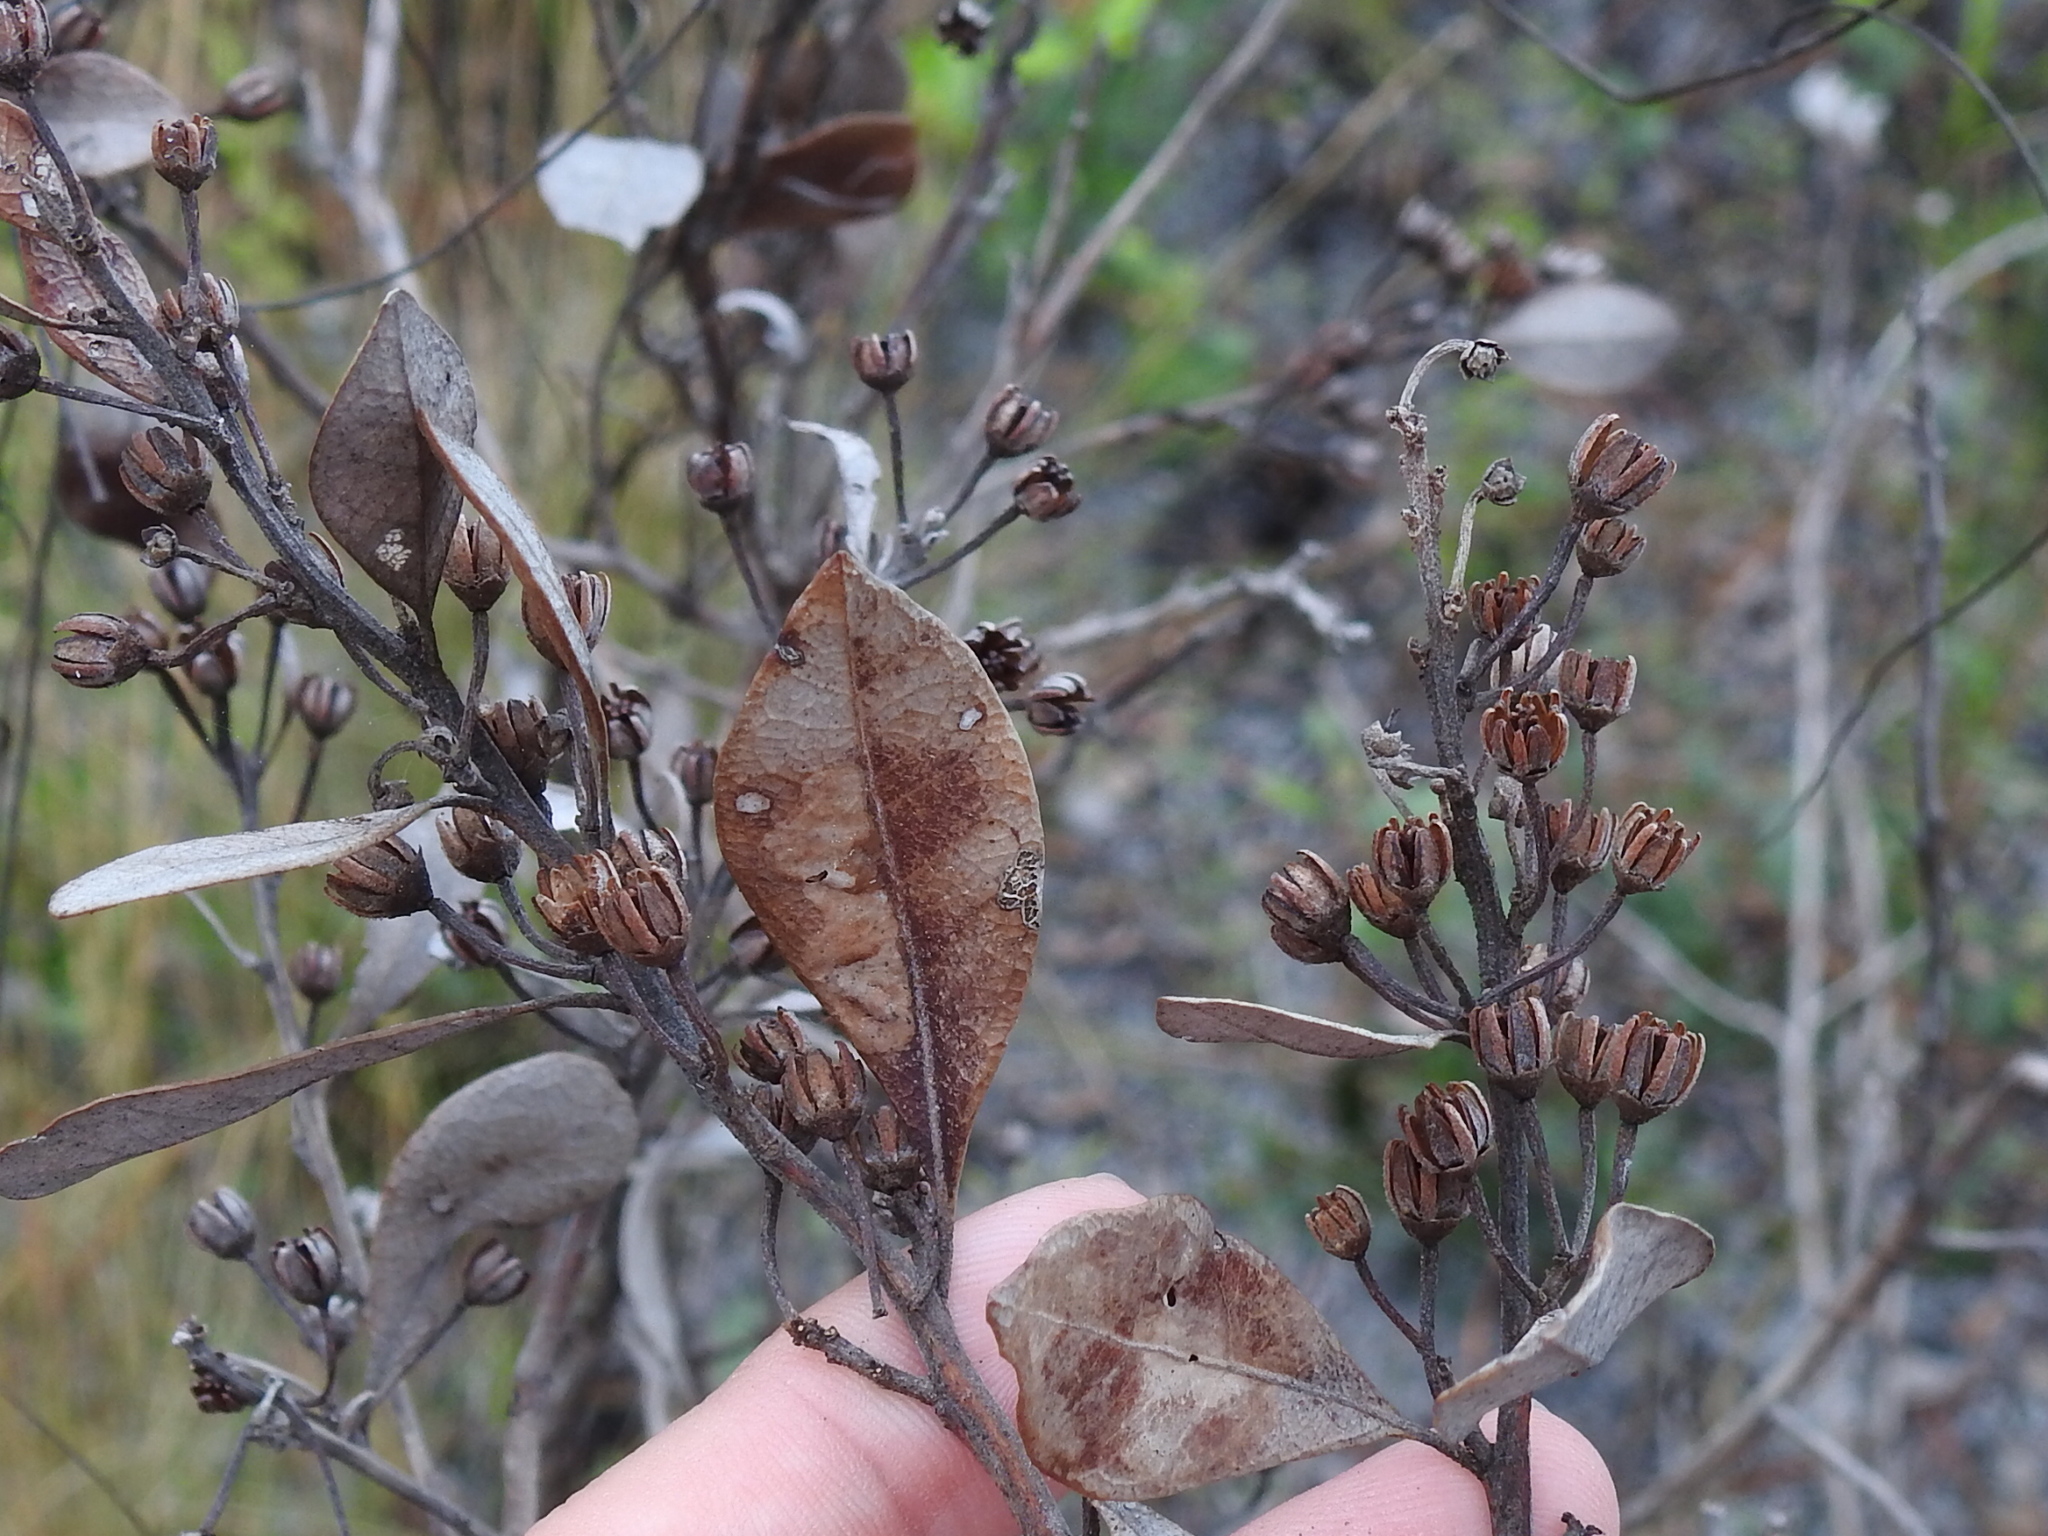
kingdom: Plantae
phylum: Tracheophyta
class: Magnoliopsida
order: Ericales
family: Ericaceae
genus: Lyonia
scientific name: Lyonia fruticosa
